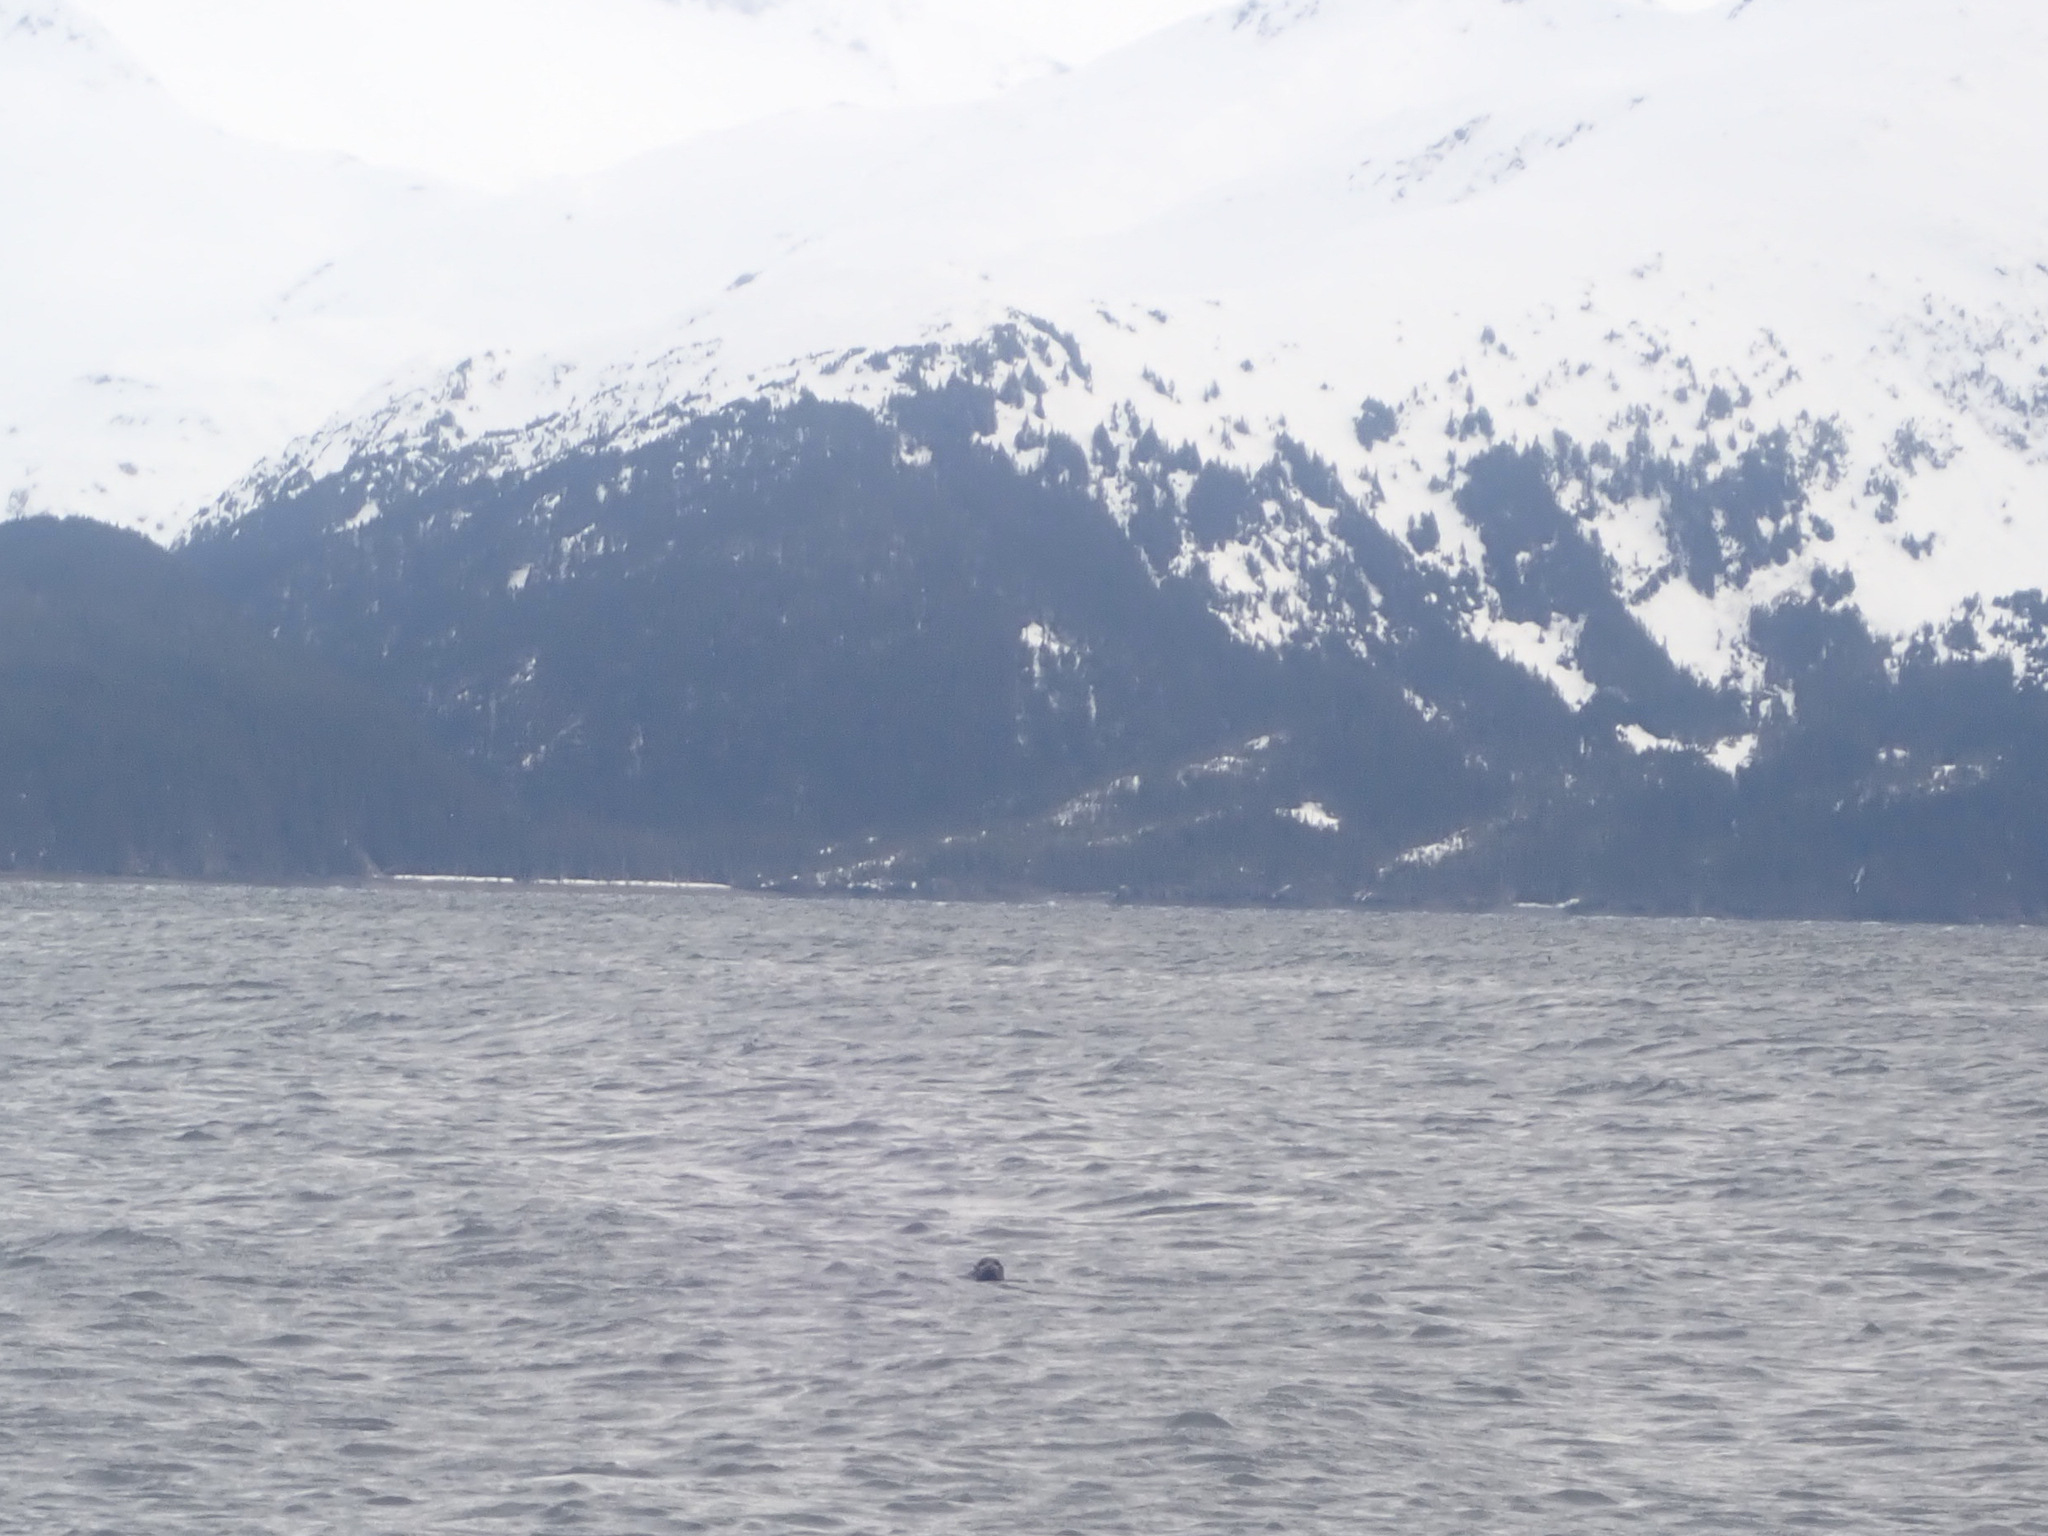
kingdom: Animalia
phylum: Chordata
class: Mammalia
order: Carnivora
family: Phocidae
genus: Phoca
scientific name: Phoca vitulina
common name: Harbor seal
